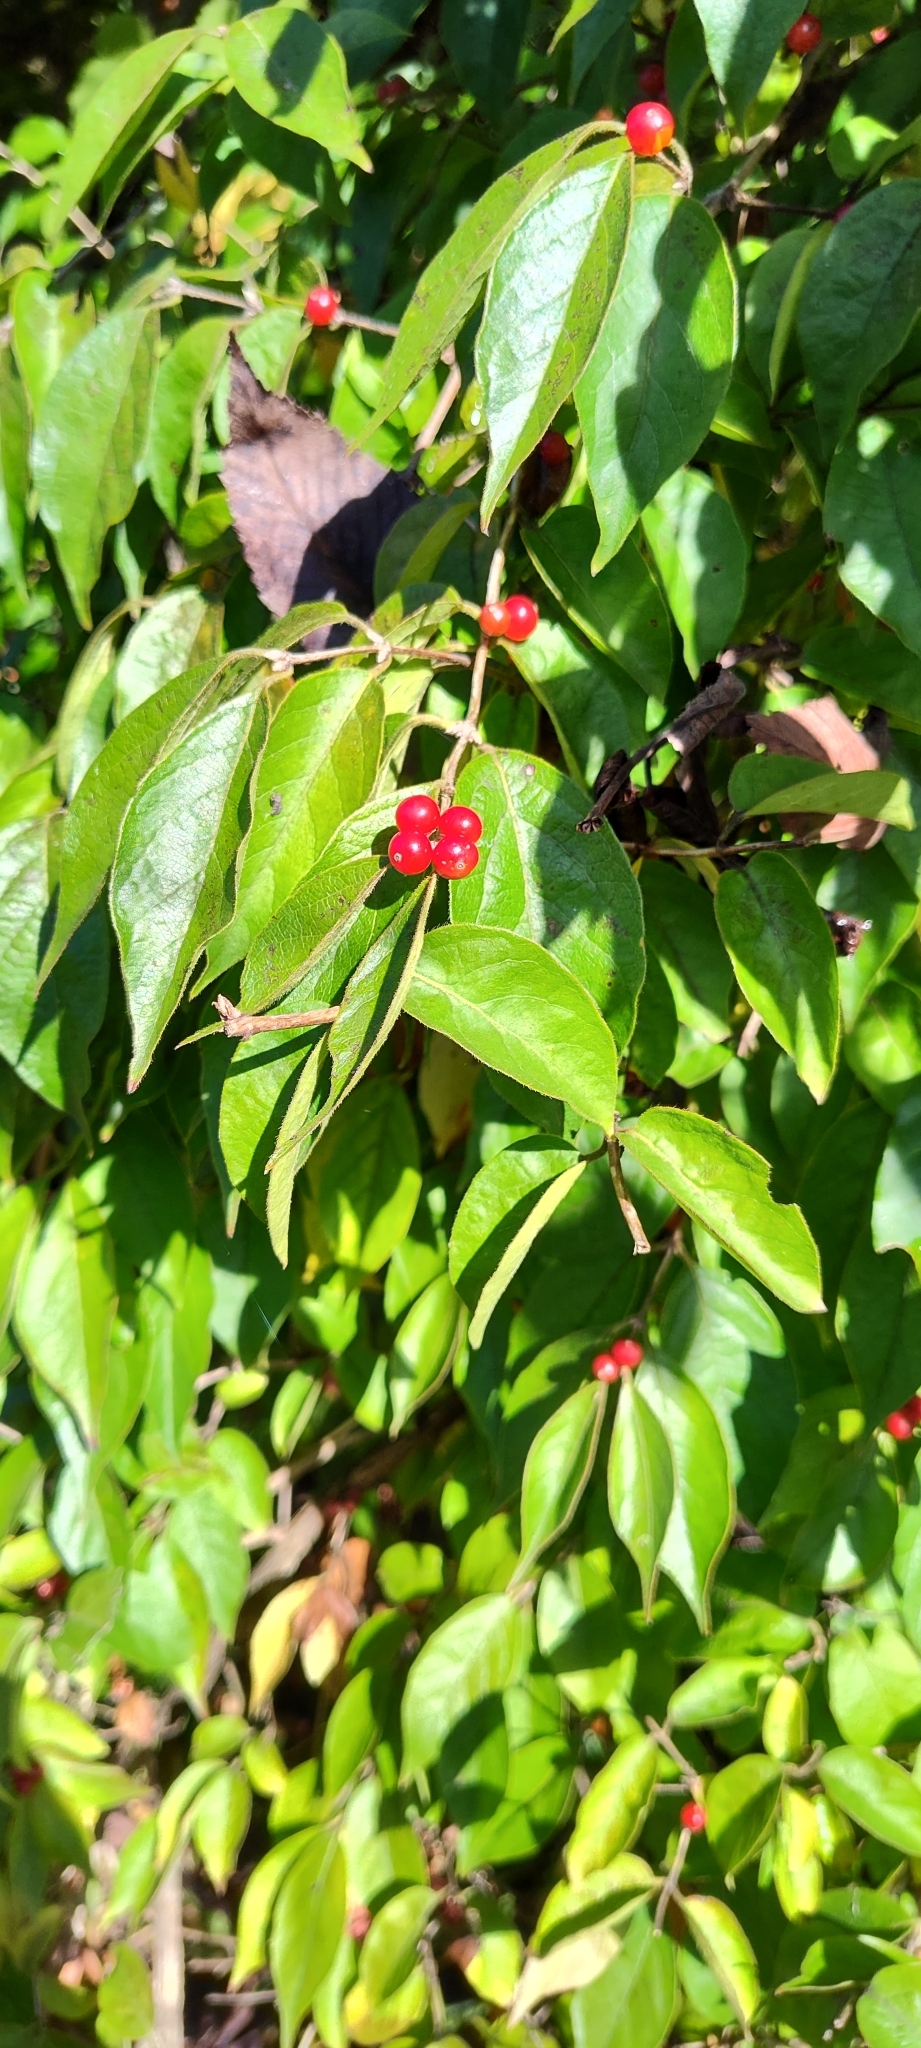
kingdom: Plantae
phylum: Tracheophyta
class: Magnoliopsida
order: Dipsacales
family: Caprifoliaceae
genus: Lonicera
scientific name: Lonicera maackii
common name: Amur honeysuckle
